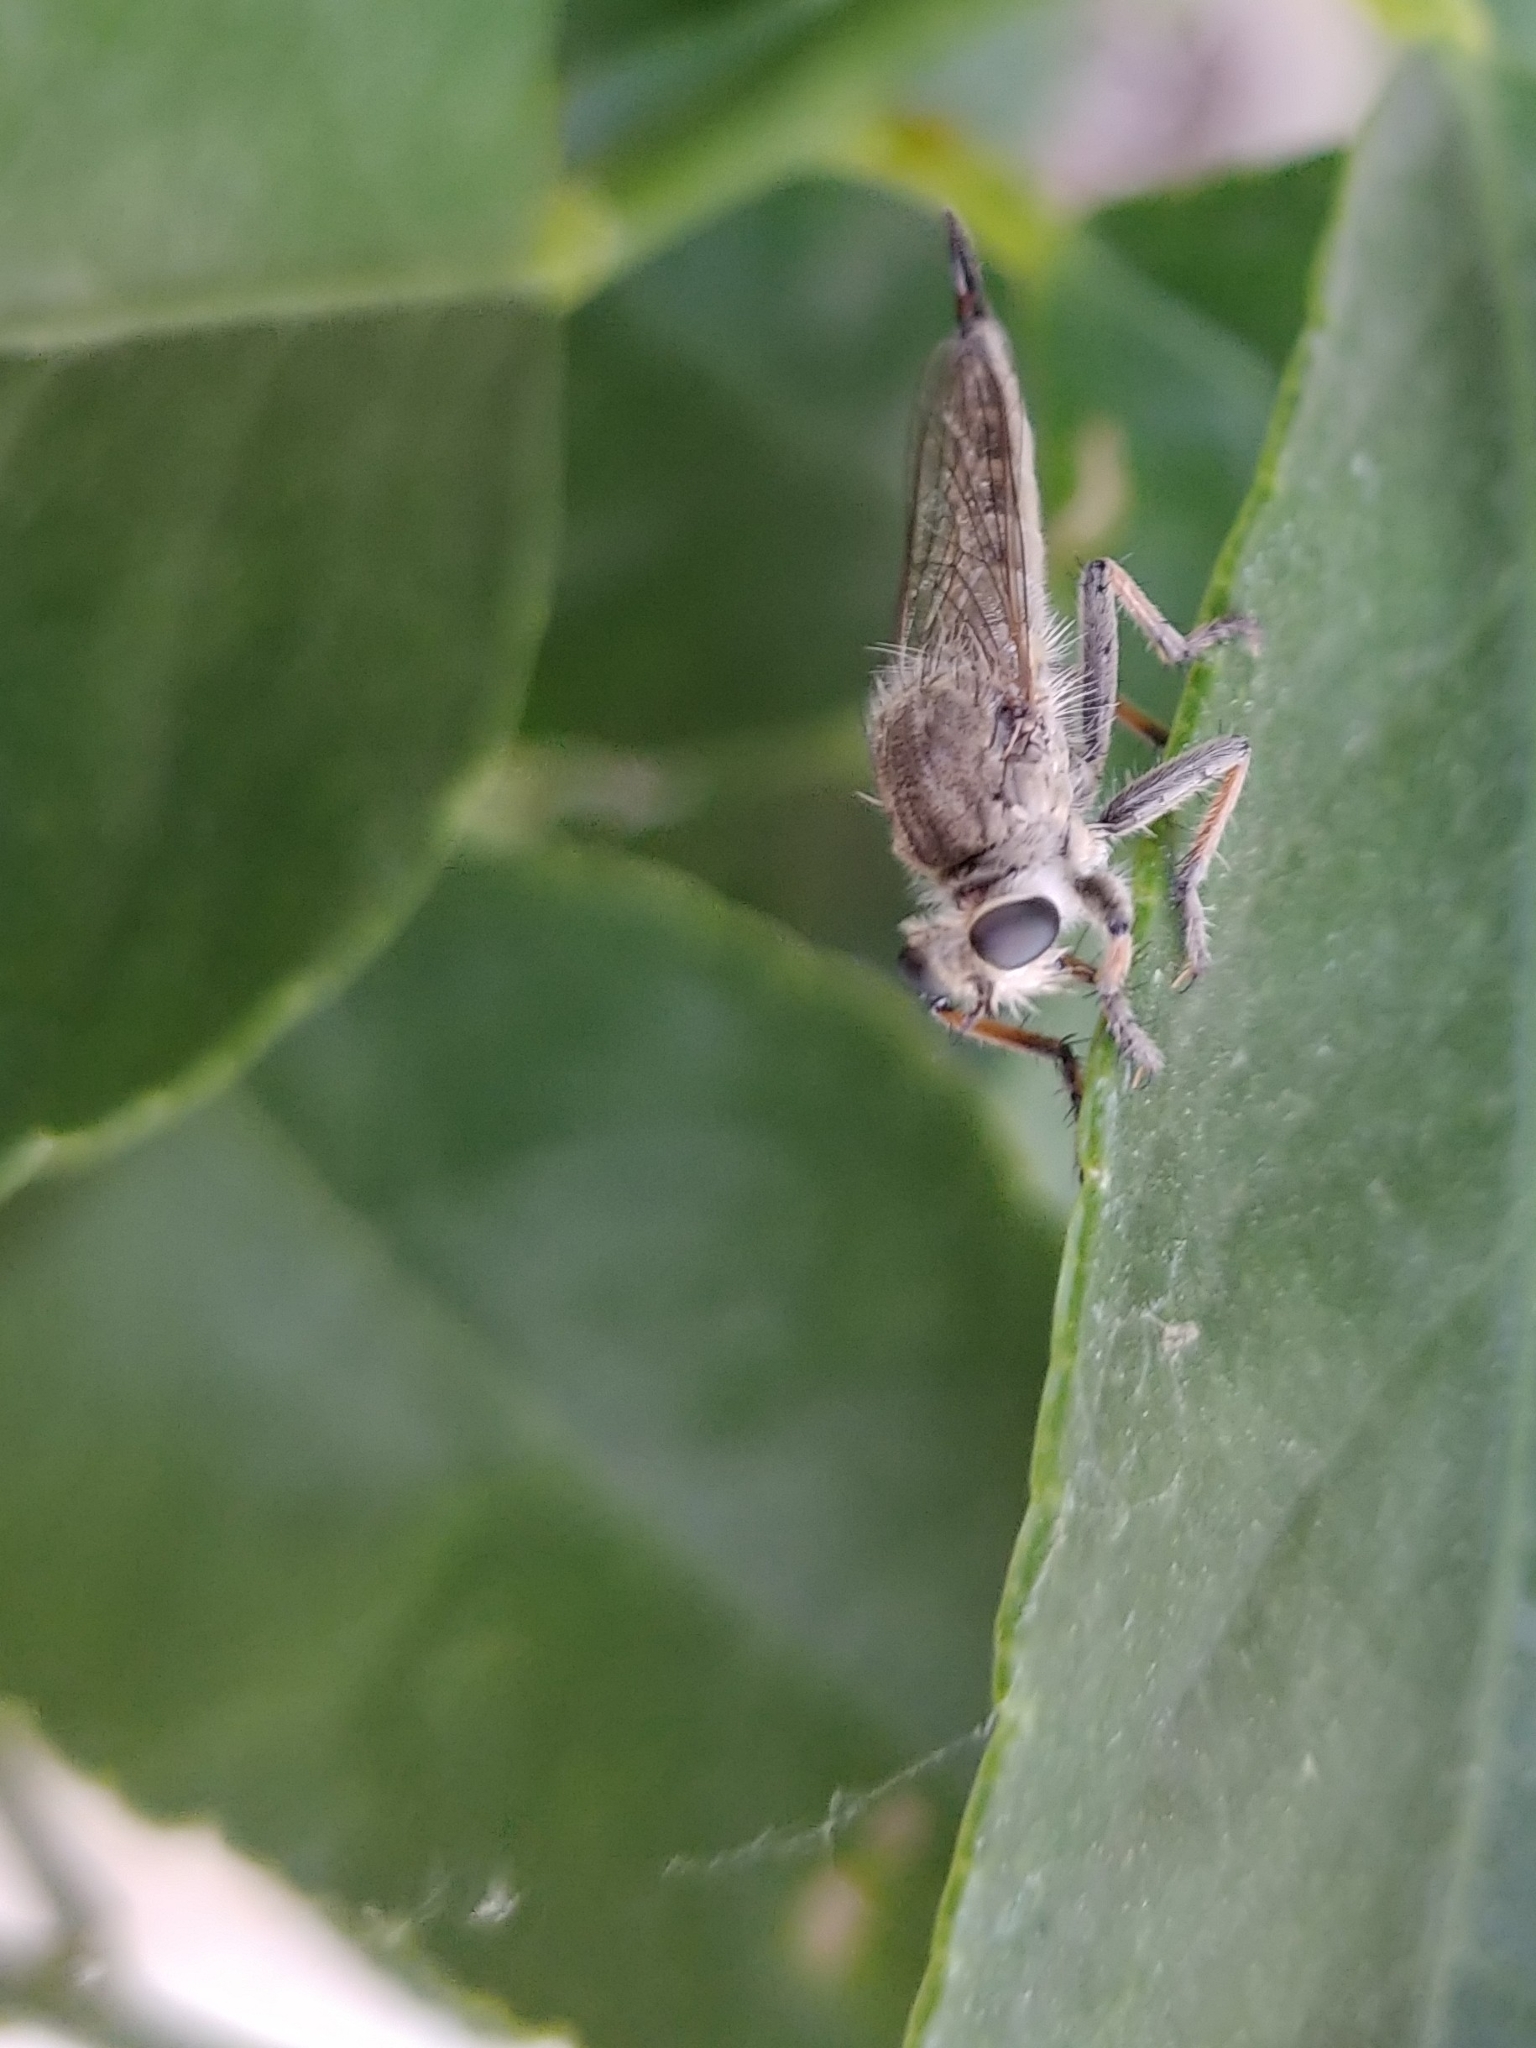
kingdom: Animalia
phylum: Arthropoda
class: Insecta
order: Diptera
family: Asilidae
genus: Efferia
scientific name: Efferia albibarbis
